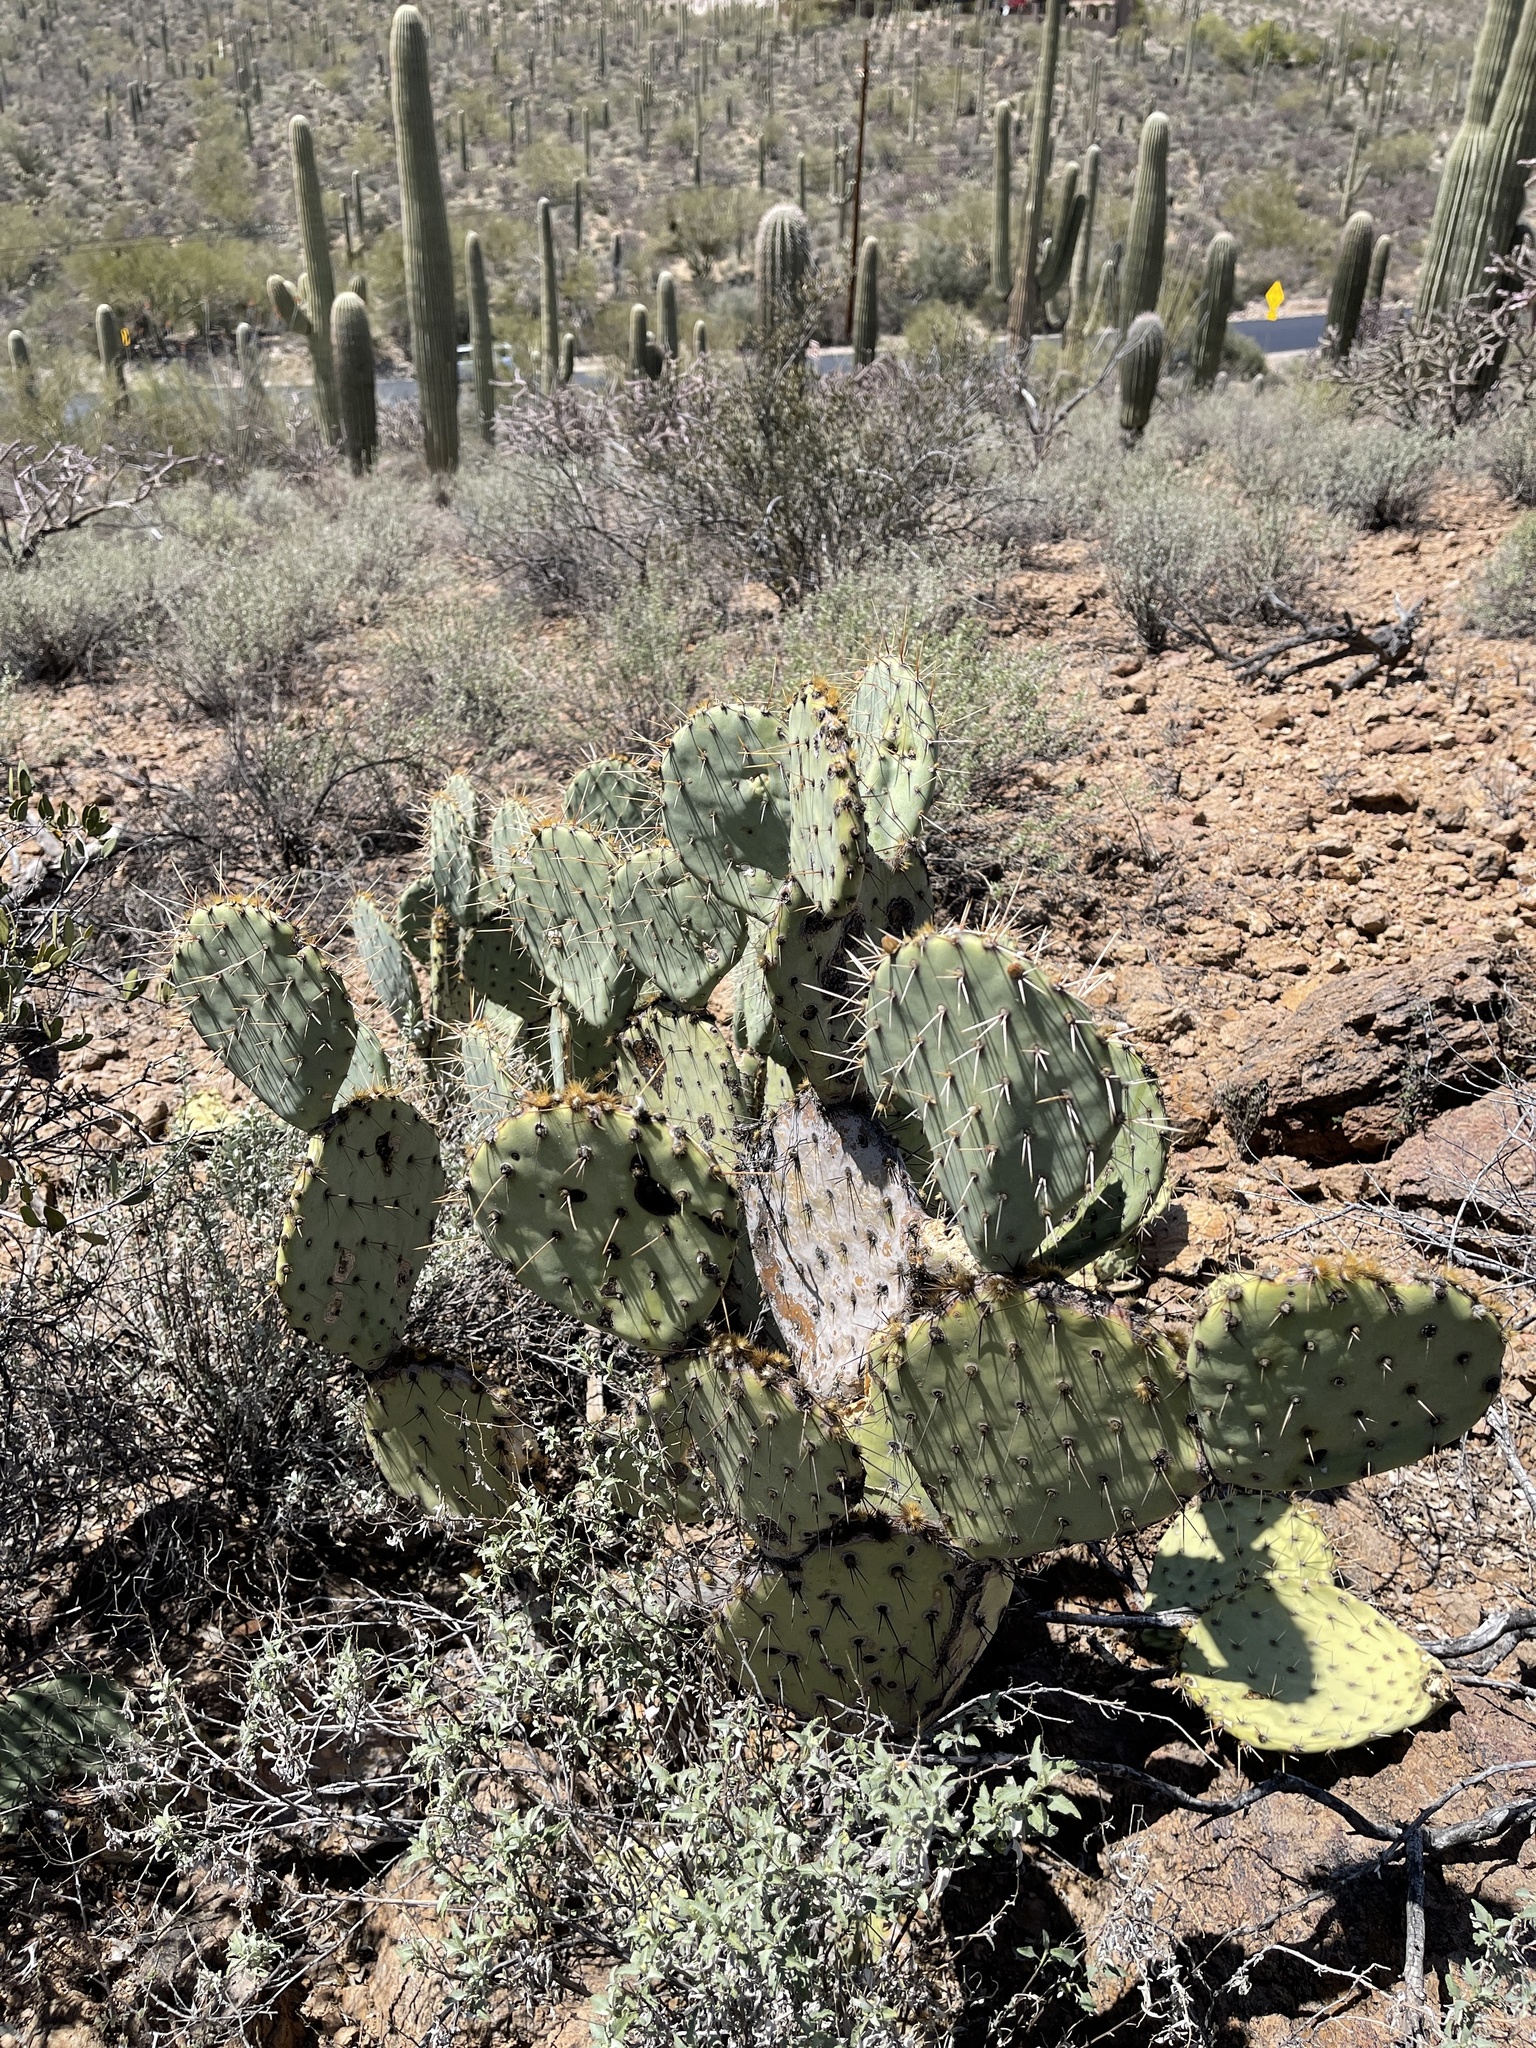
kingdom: Plantae
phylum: Tracheophyta
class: Magnoliopsida
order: Caryophyllales
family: Cactaceae
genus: Opuntia
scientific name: Opuntia engelmannii
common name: Cactus-apple
